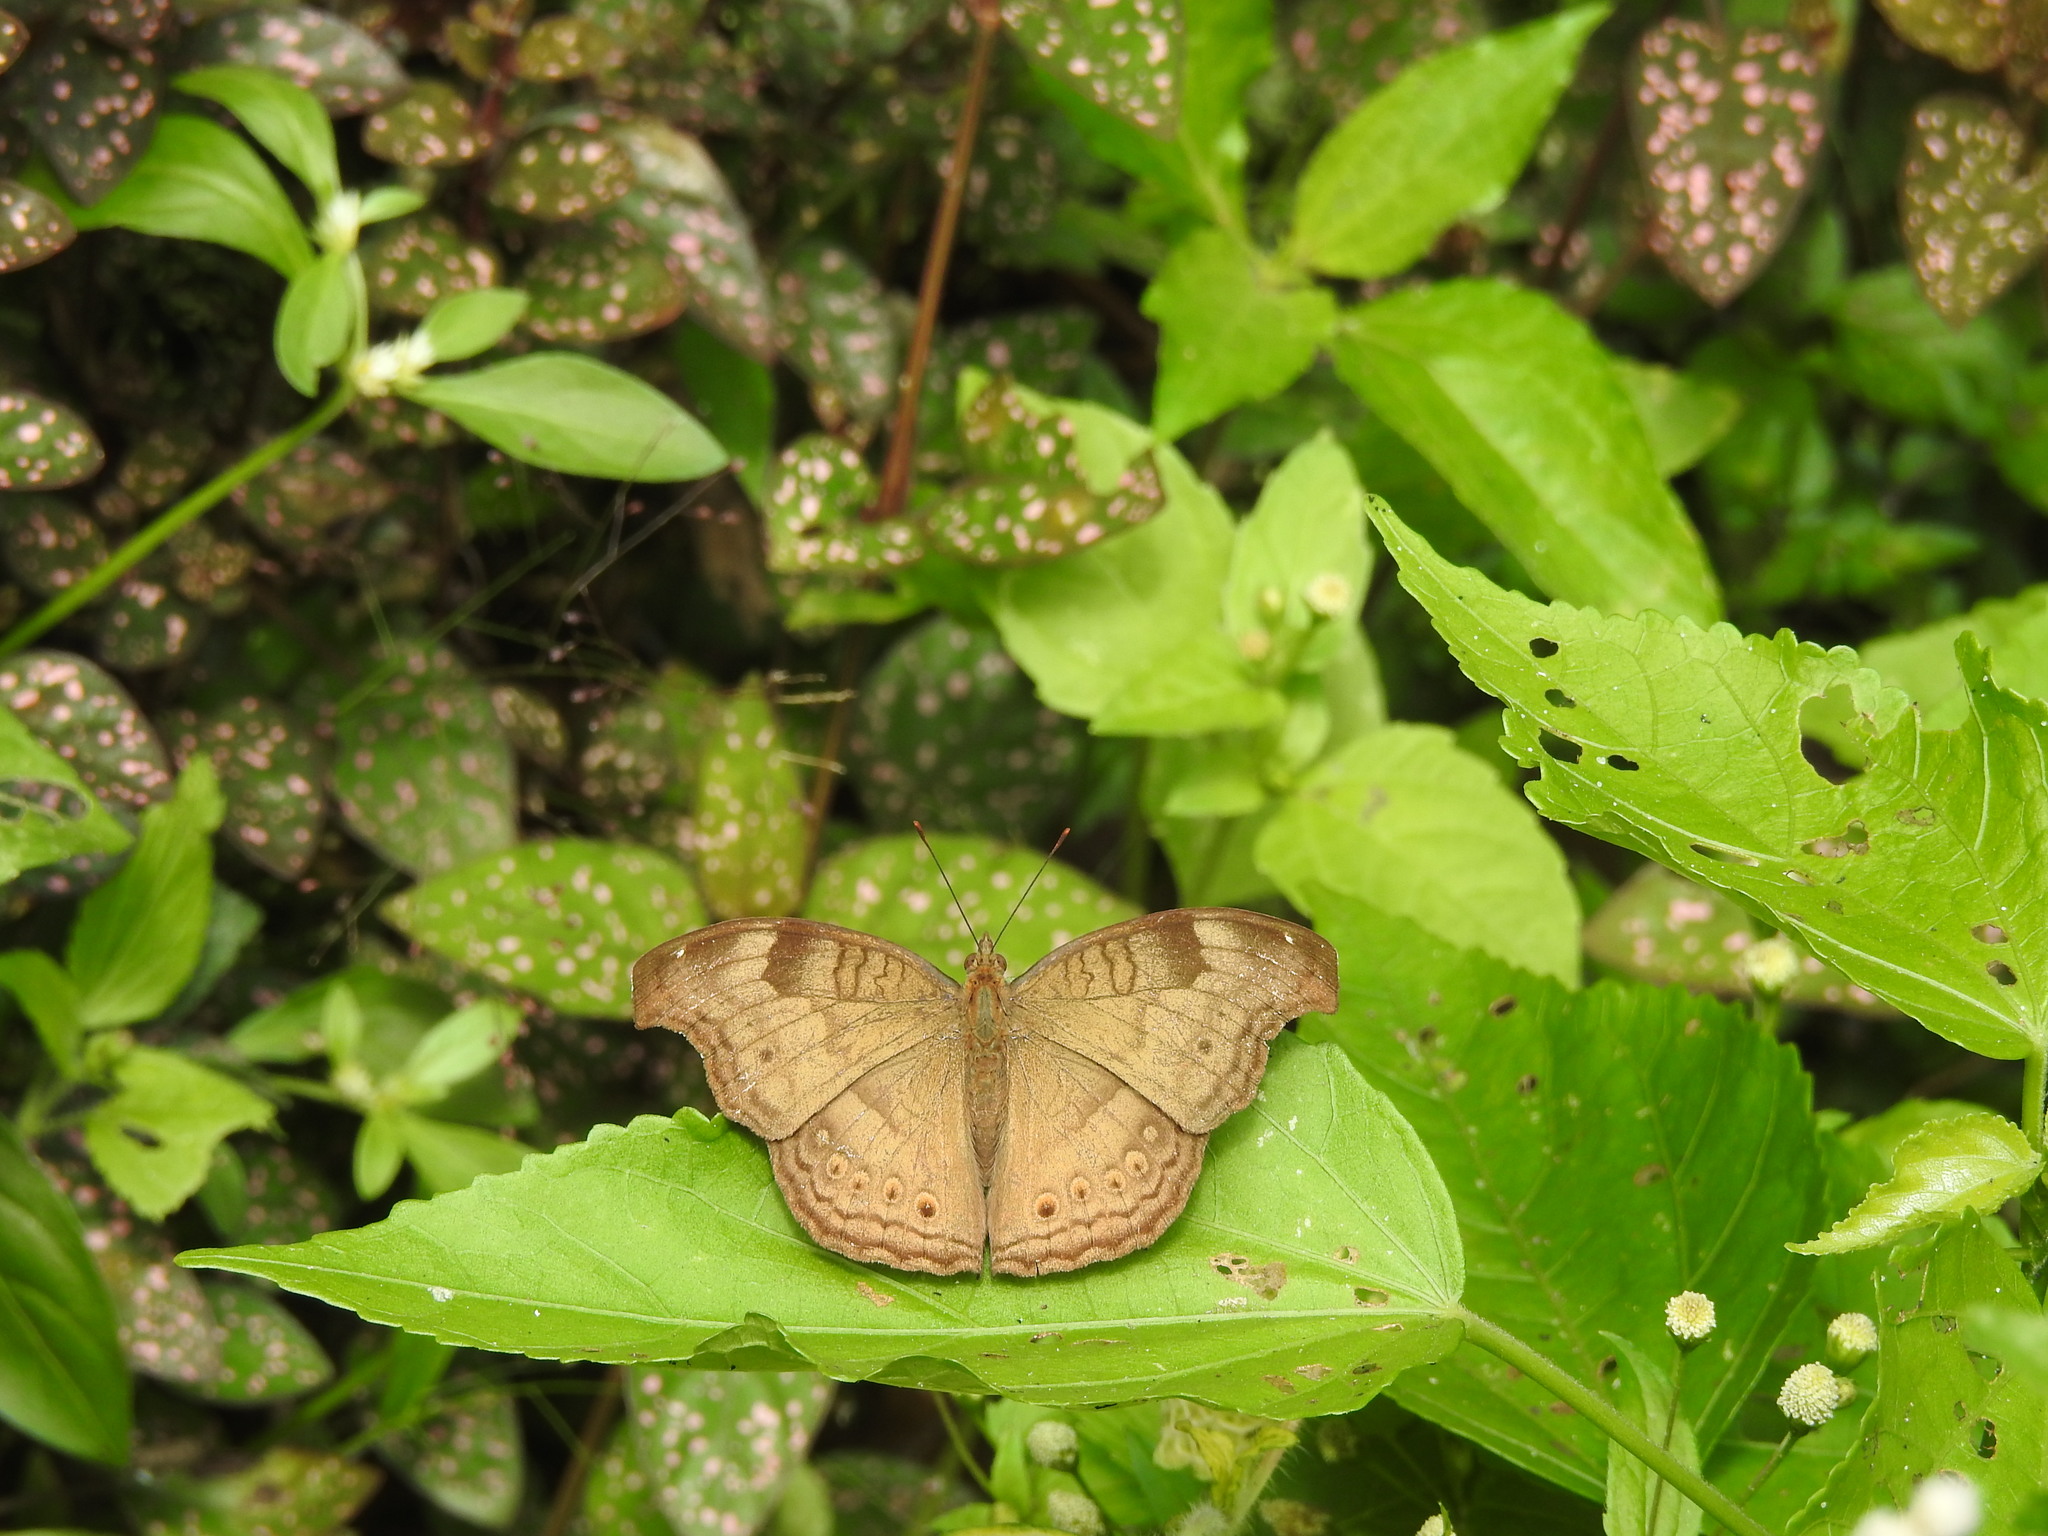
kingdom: Animalia
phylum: Arthropoda
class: Insecta
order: Lepidoptera
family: Nymphalidae
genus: Junonia
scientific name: Junonia iphita
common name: Chocolate pansy
